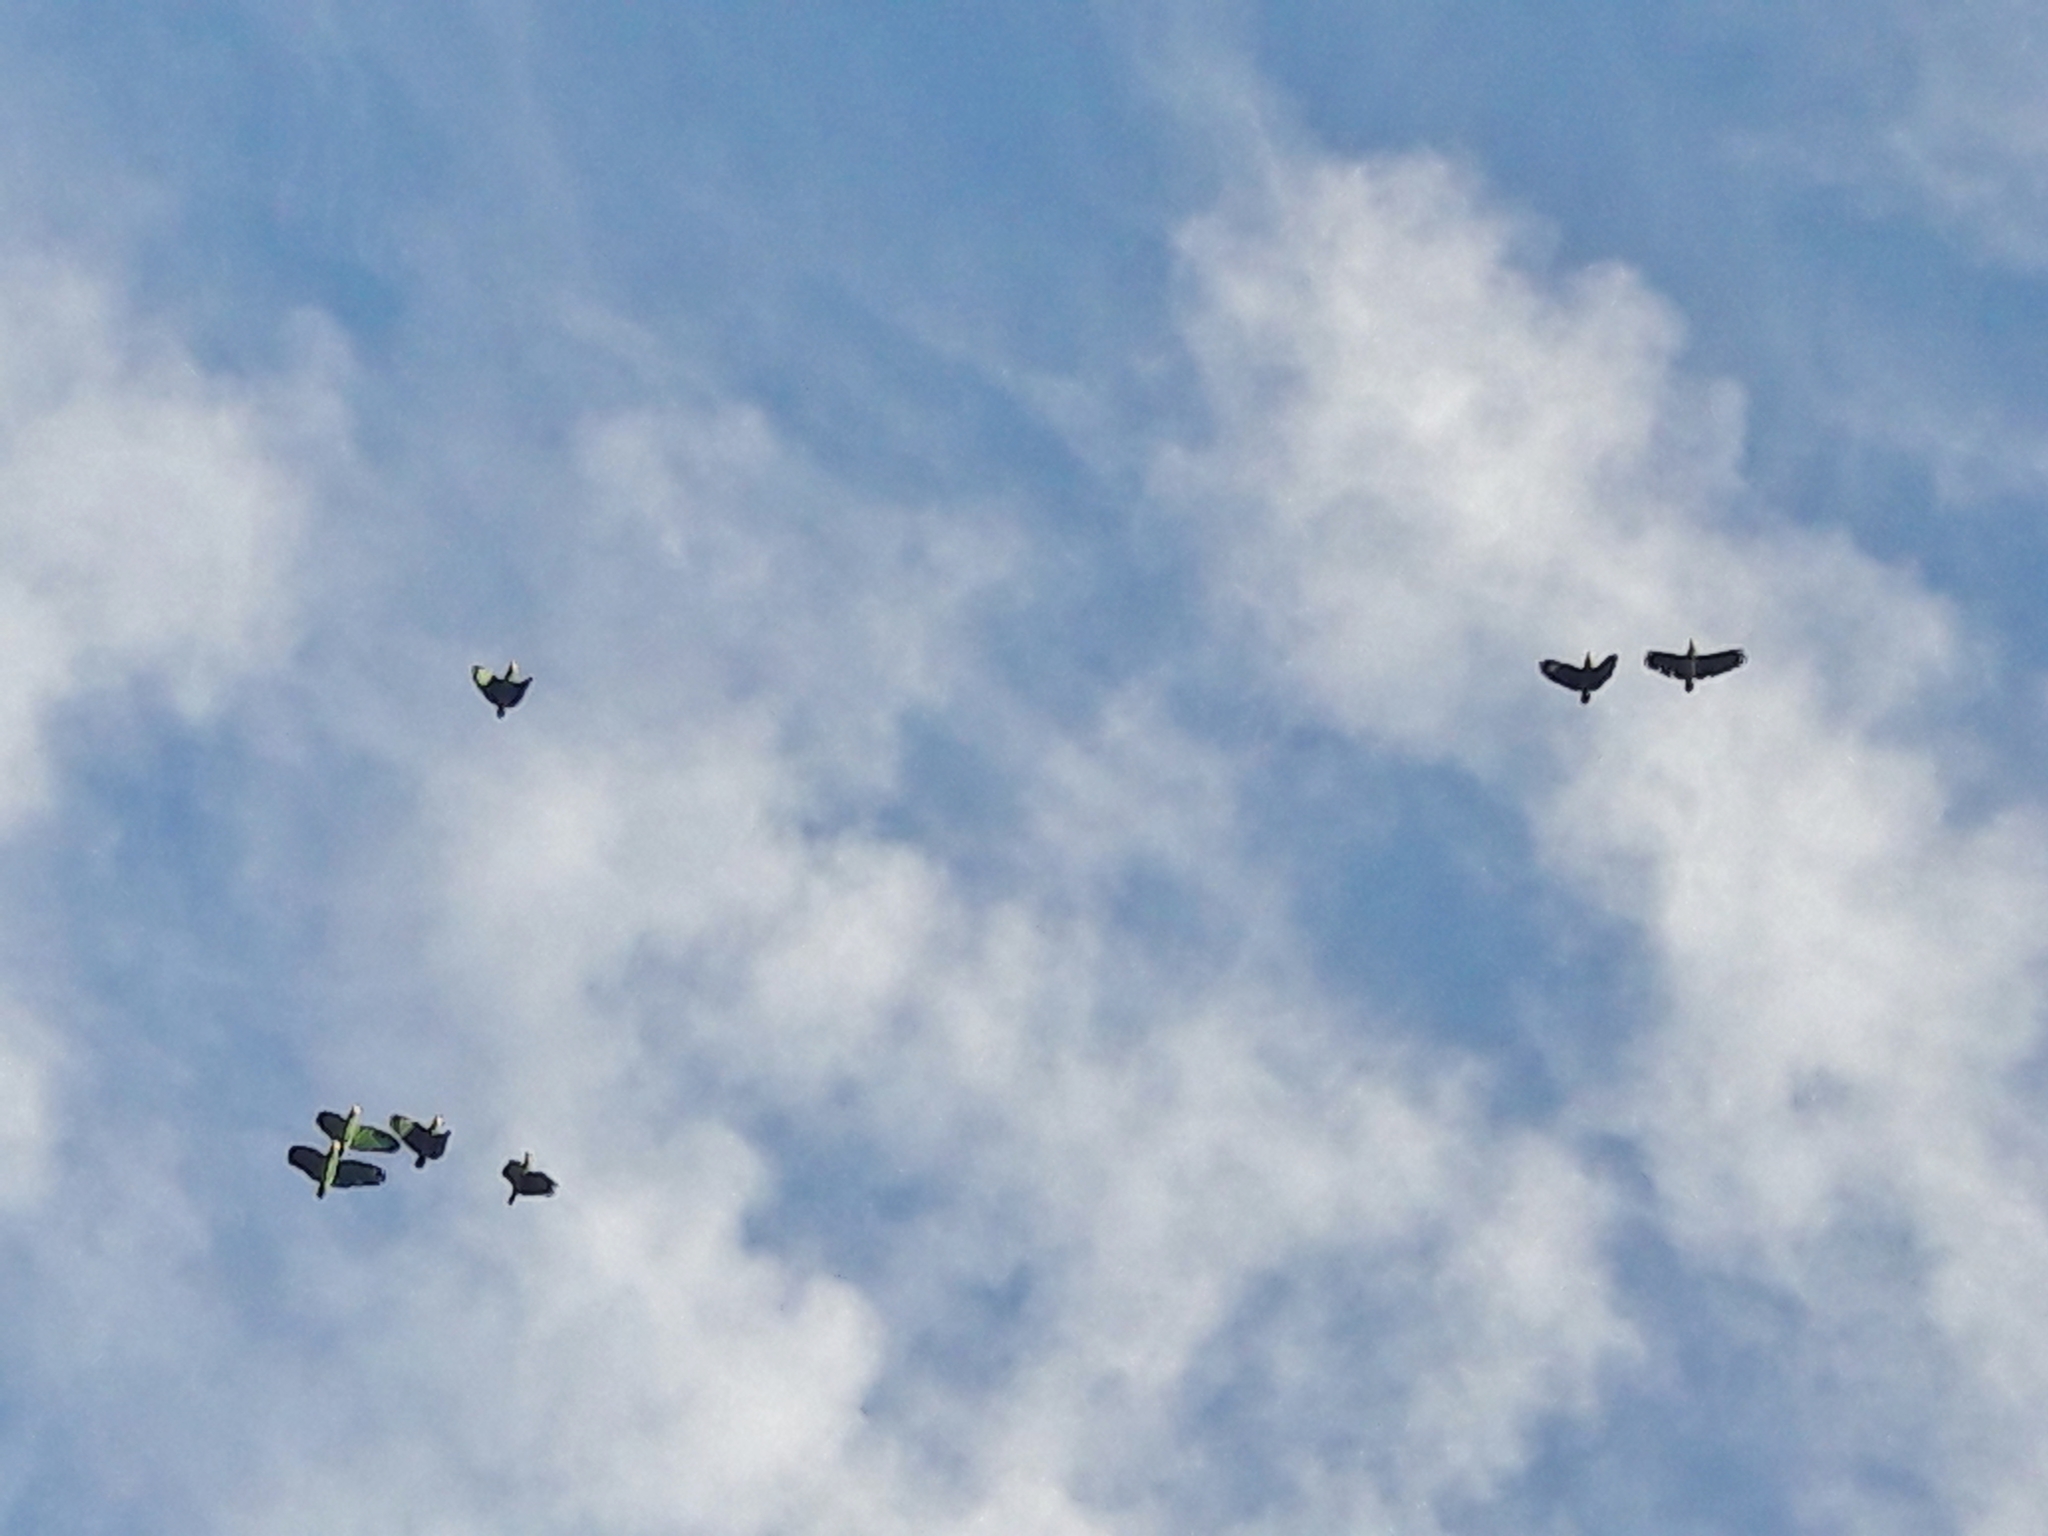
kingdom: Animalia
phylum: Chordata
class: Aves
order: Psittaciformes
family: Psittacidae
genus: Amazona
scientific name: Amazona
